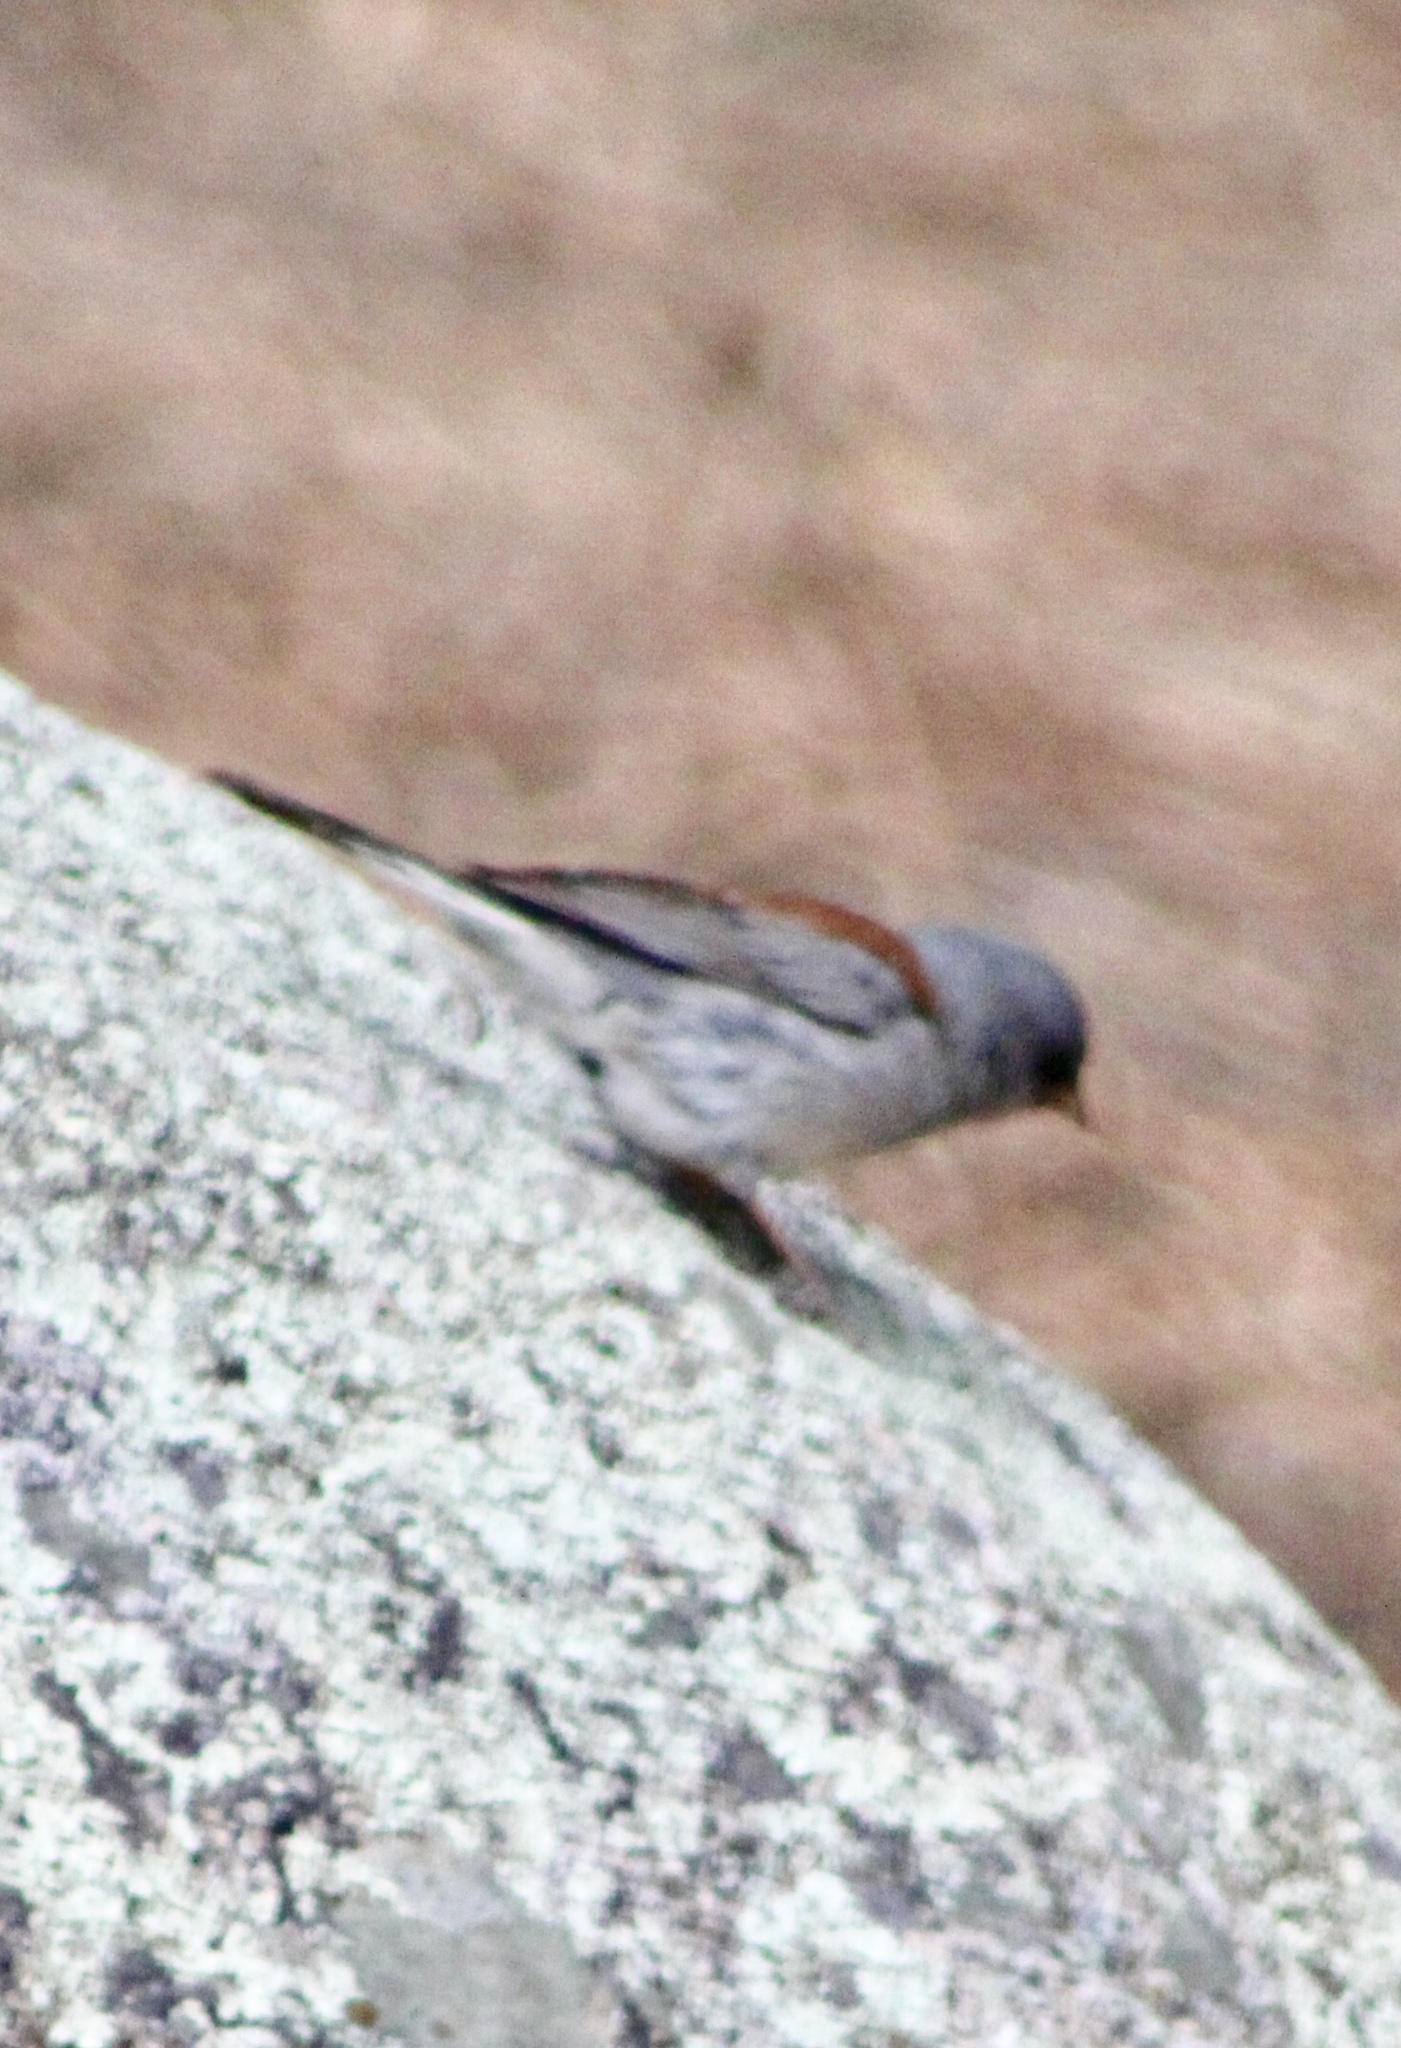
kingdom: Animalia
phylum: Chordata
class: Aves
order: Passeriformes
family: Passerellidae
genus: Junco
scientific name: Junco hyemalis
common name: Dark-eyed junco
